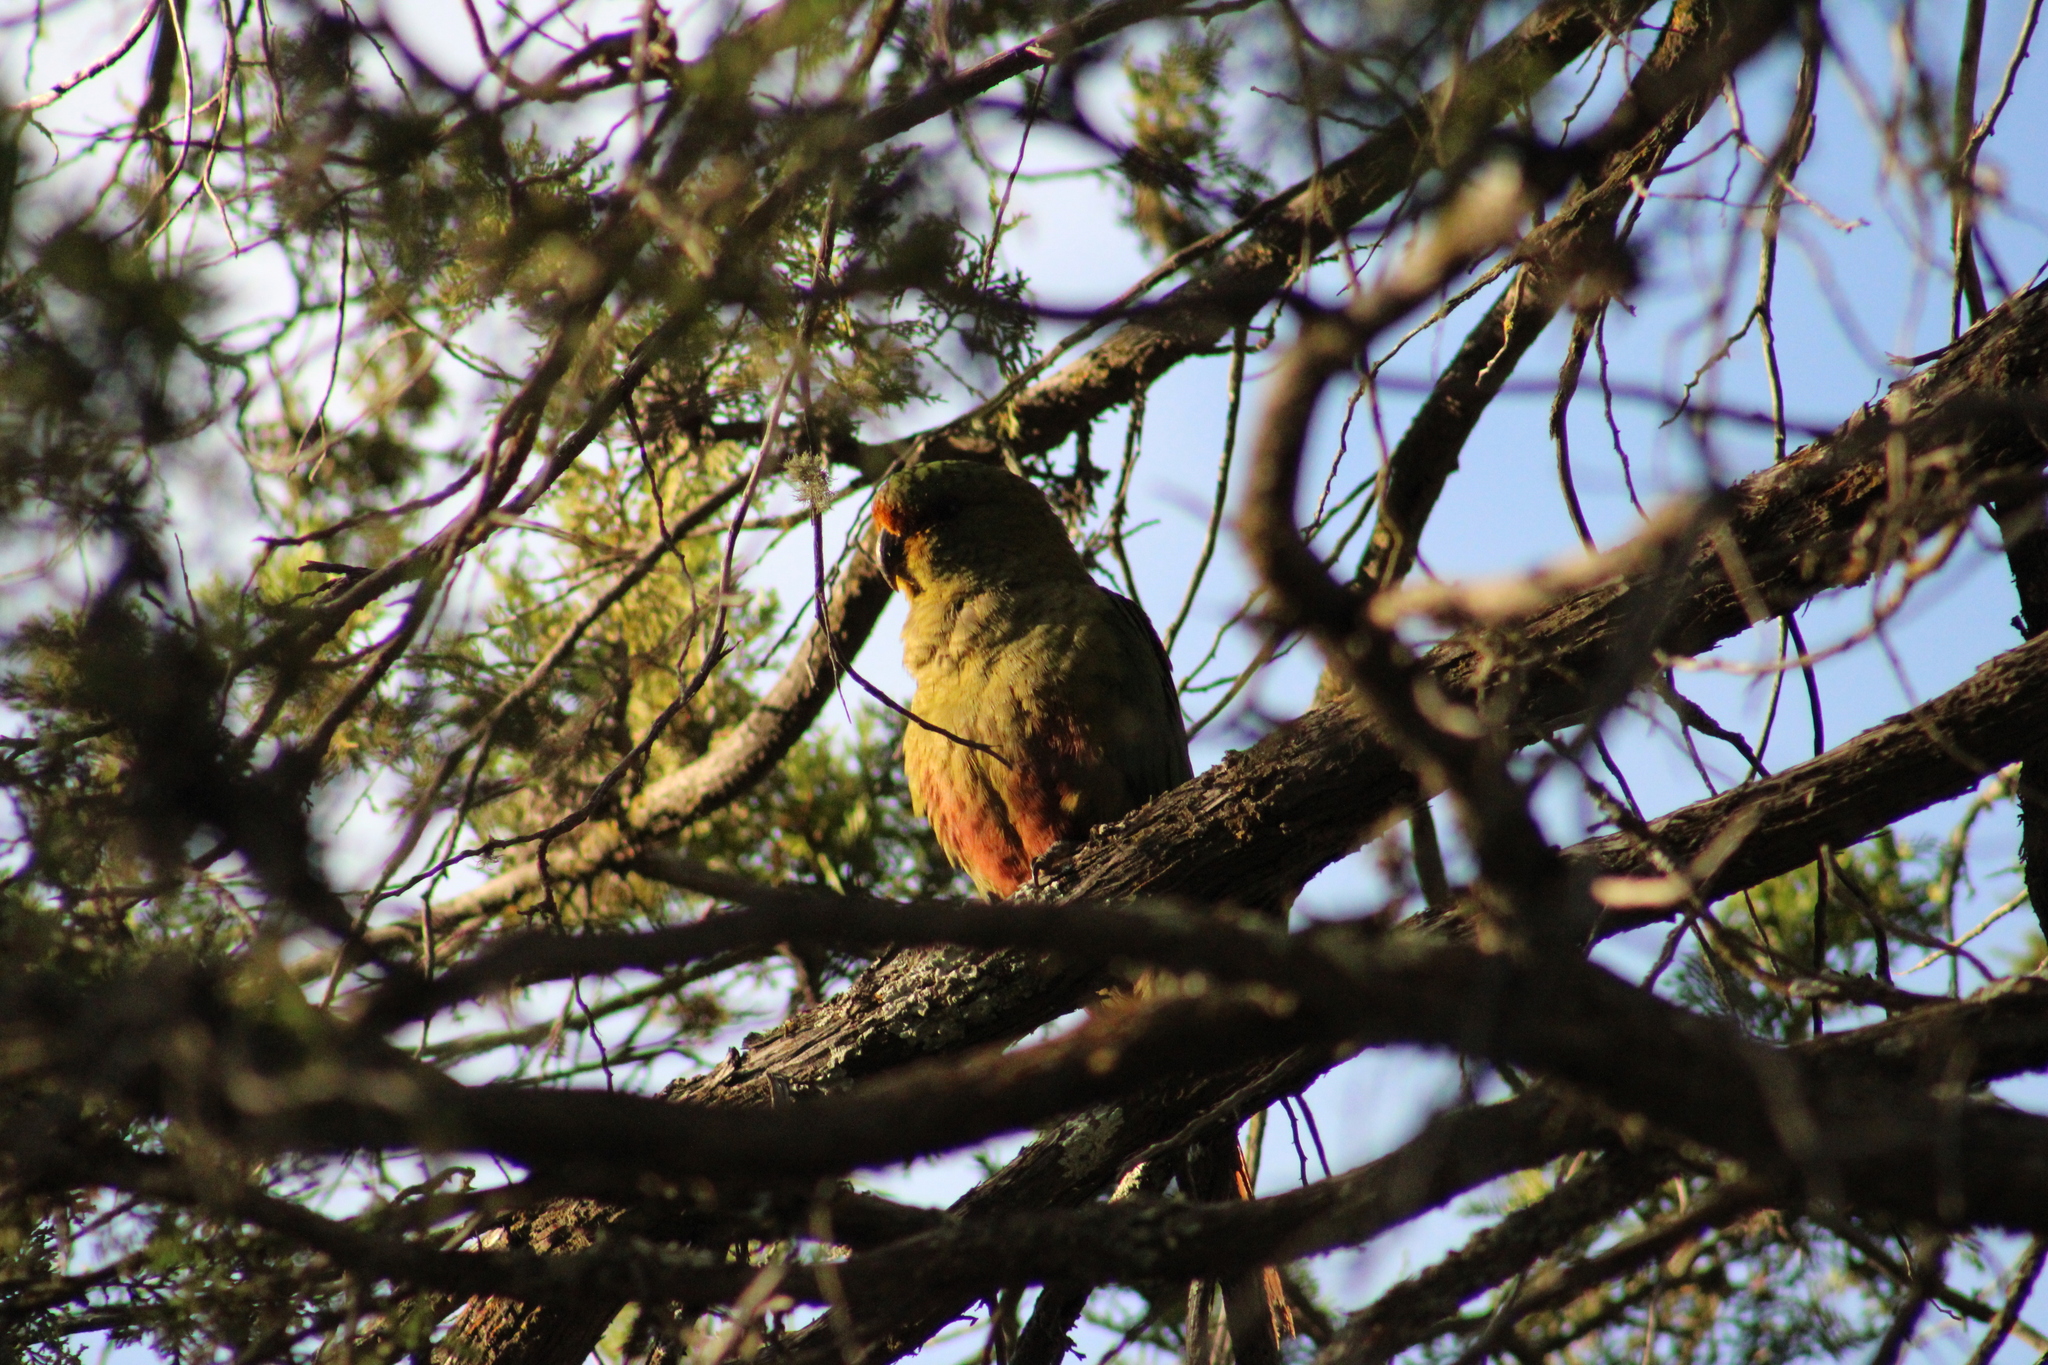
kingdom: Animalia
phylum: Chordata
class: Aves
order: Psittaciformes
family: Psittacidae
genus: Enicognathus
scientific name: Enicognathus ferrugineus
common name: Austral parakeet
